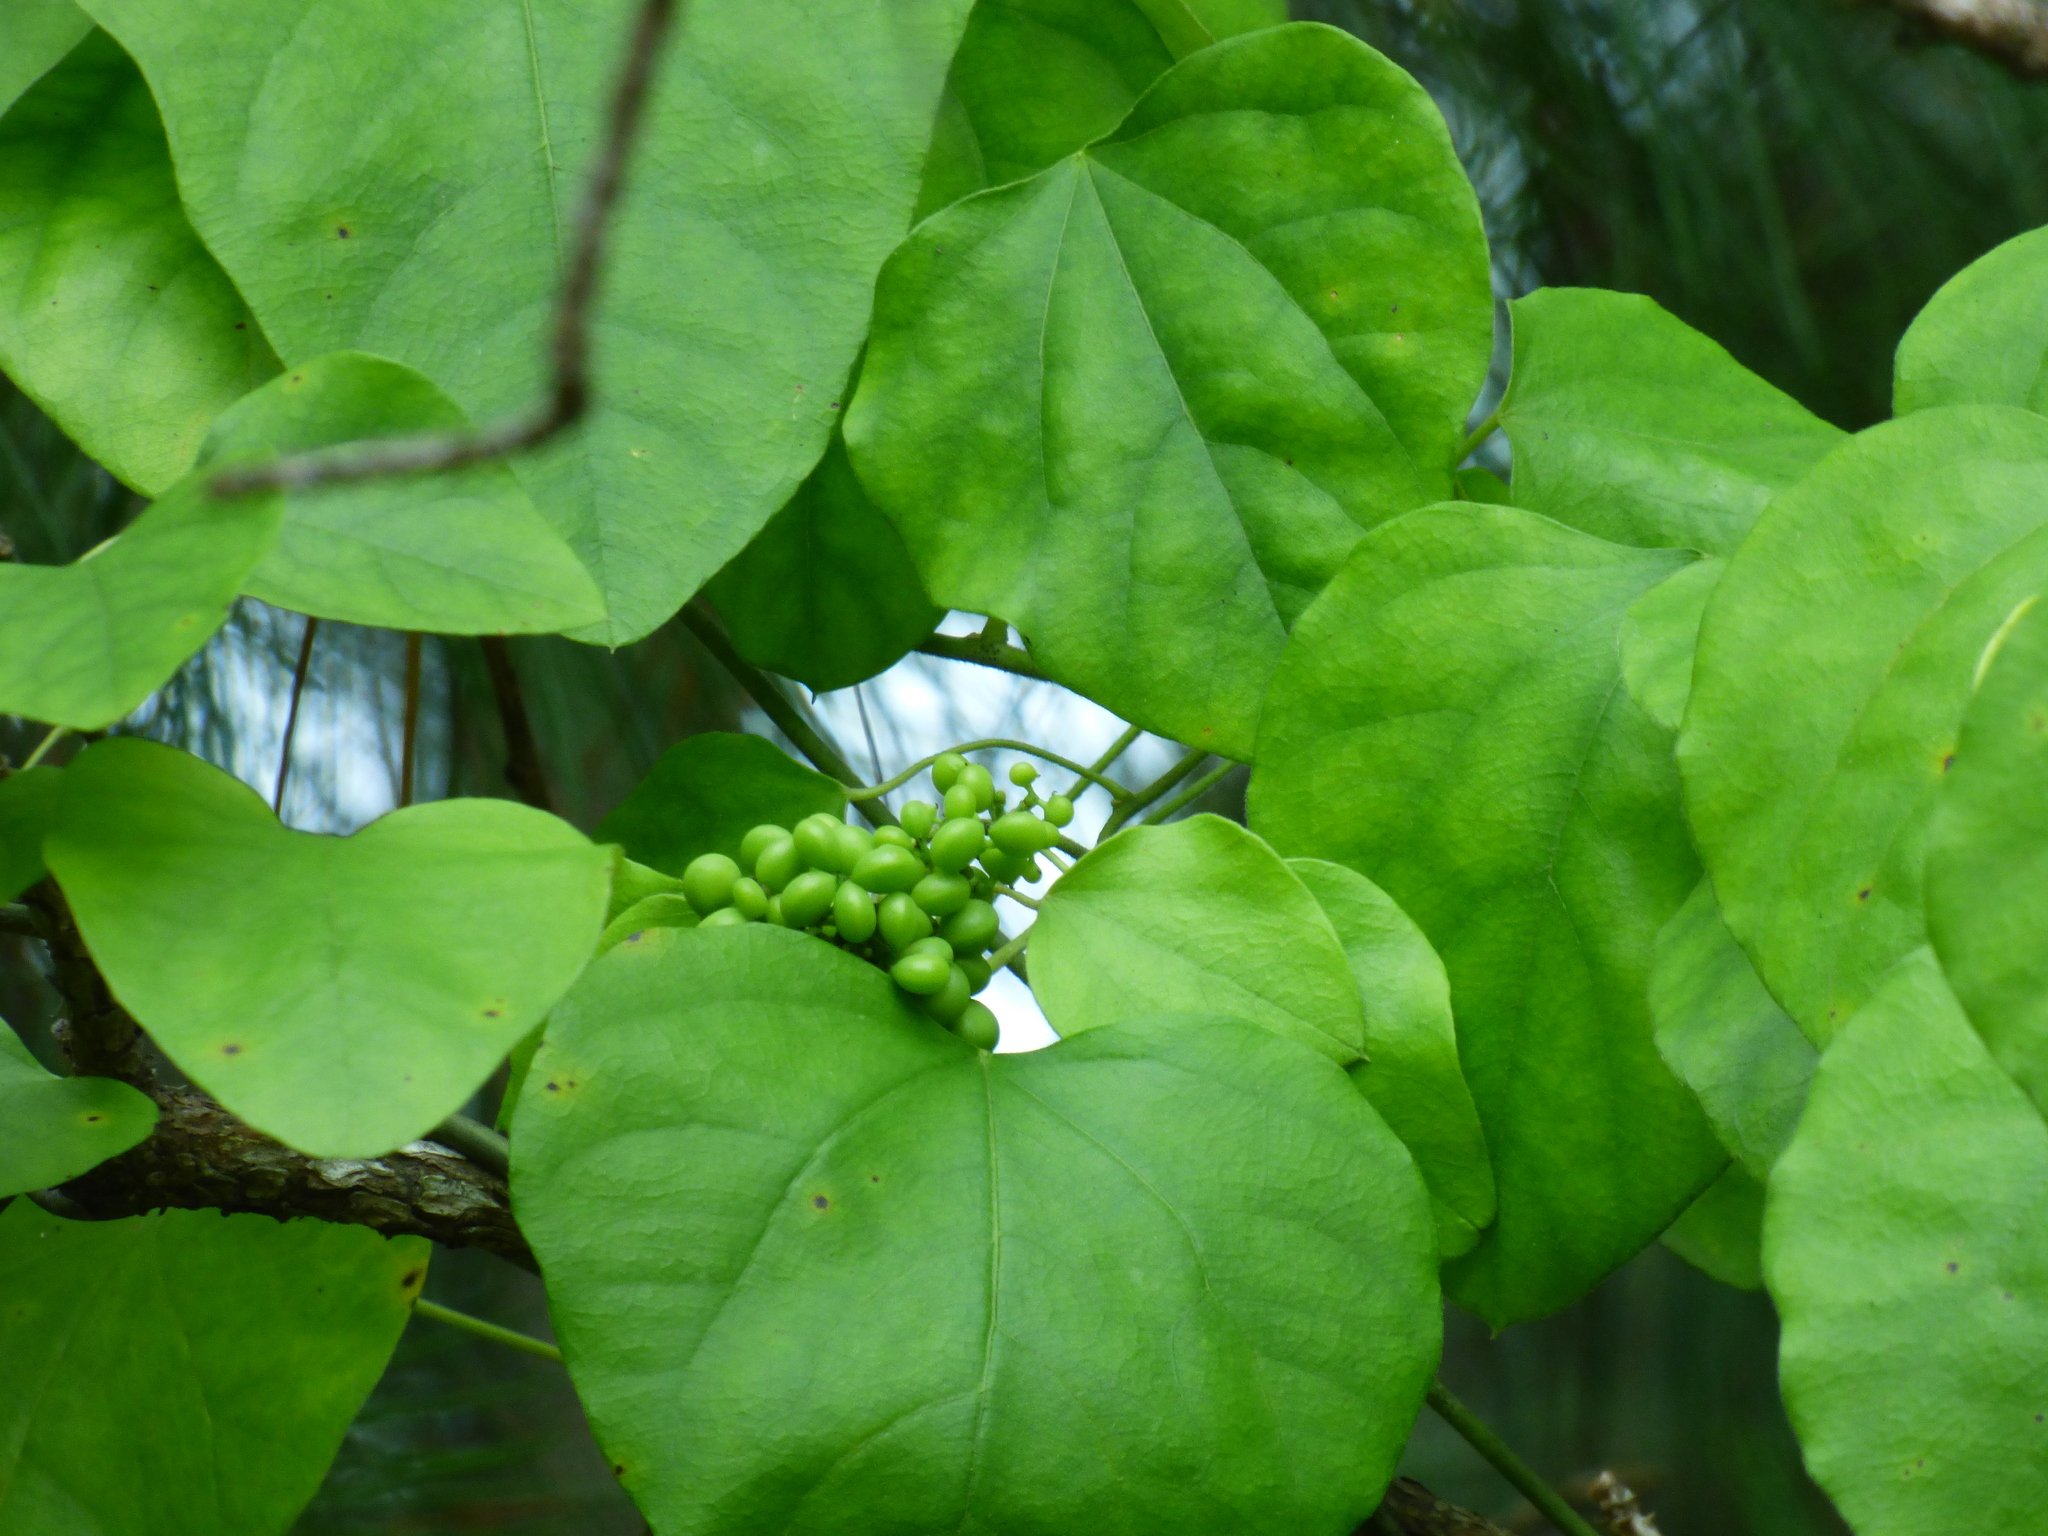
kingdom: Plantae
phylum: Tracheophyta
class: Magnoliopsida
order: Ranunculales
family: Menispermaceae
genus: Cocculus
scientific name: Cocculus carolinus
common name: Carolina moonseed
